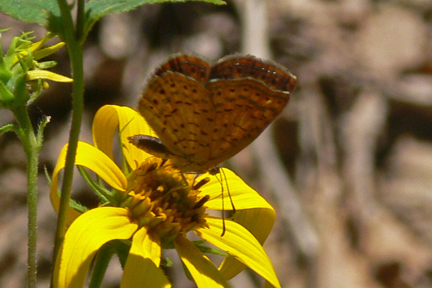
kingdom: Animalia
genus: Calephelis
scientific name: Calephelis borealis
